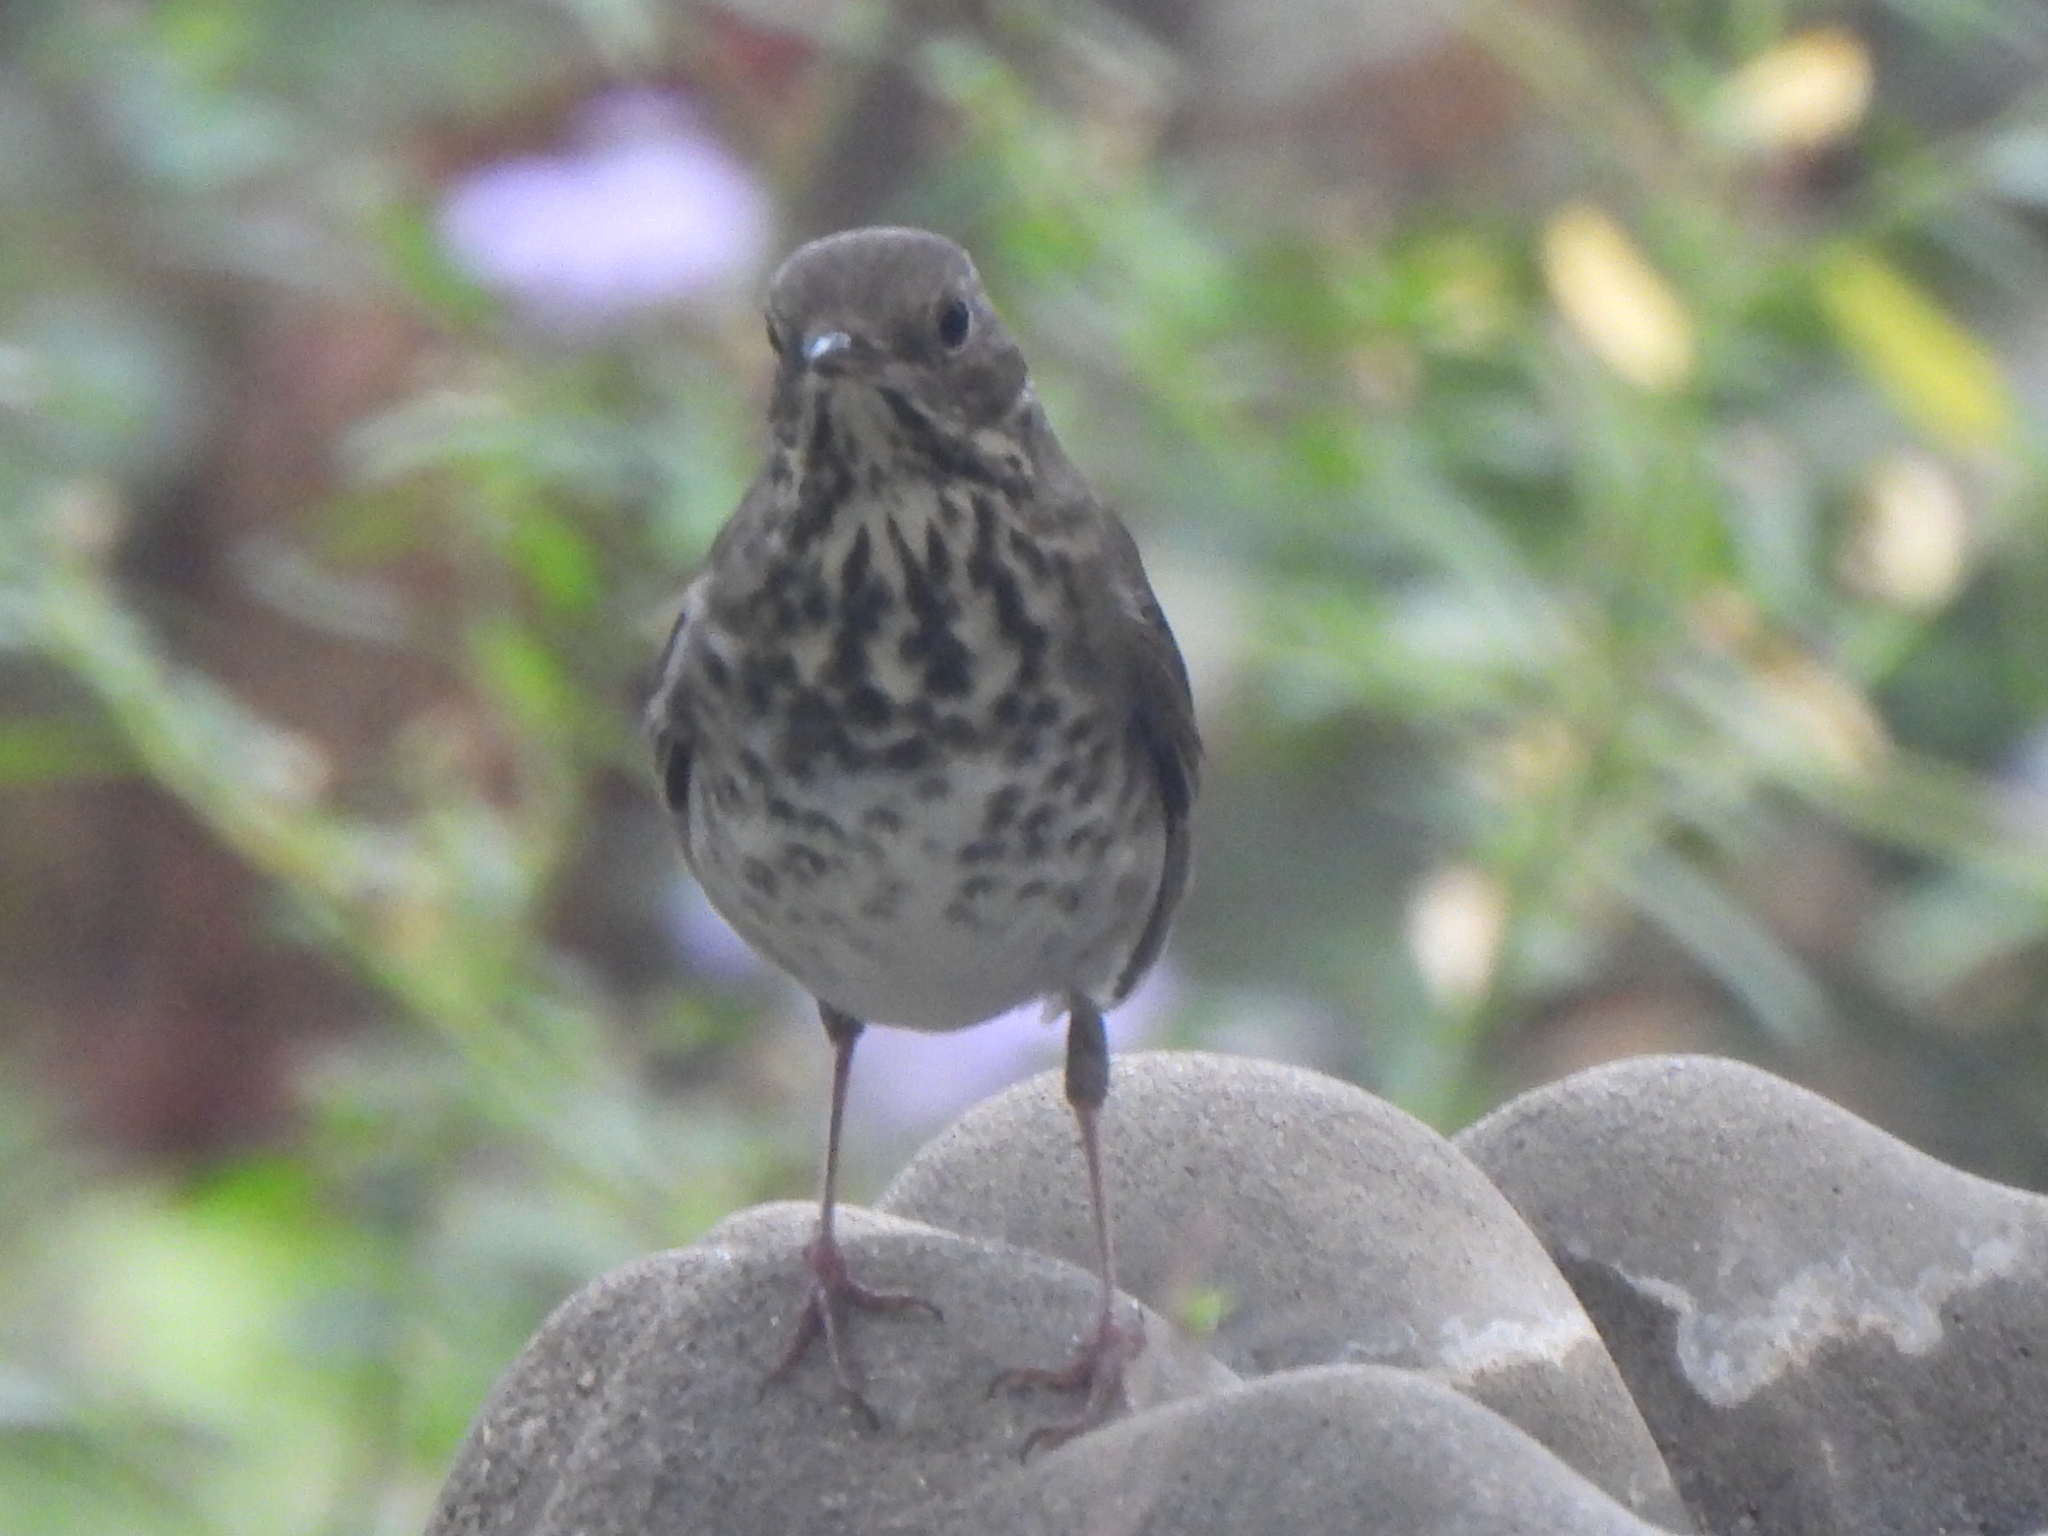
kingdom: Animalia
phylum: Chordata
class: Aves
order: Passeriformes
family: Turdidae
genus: Catharus
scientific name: Catharus guttatus
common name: Hermit thrush
